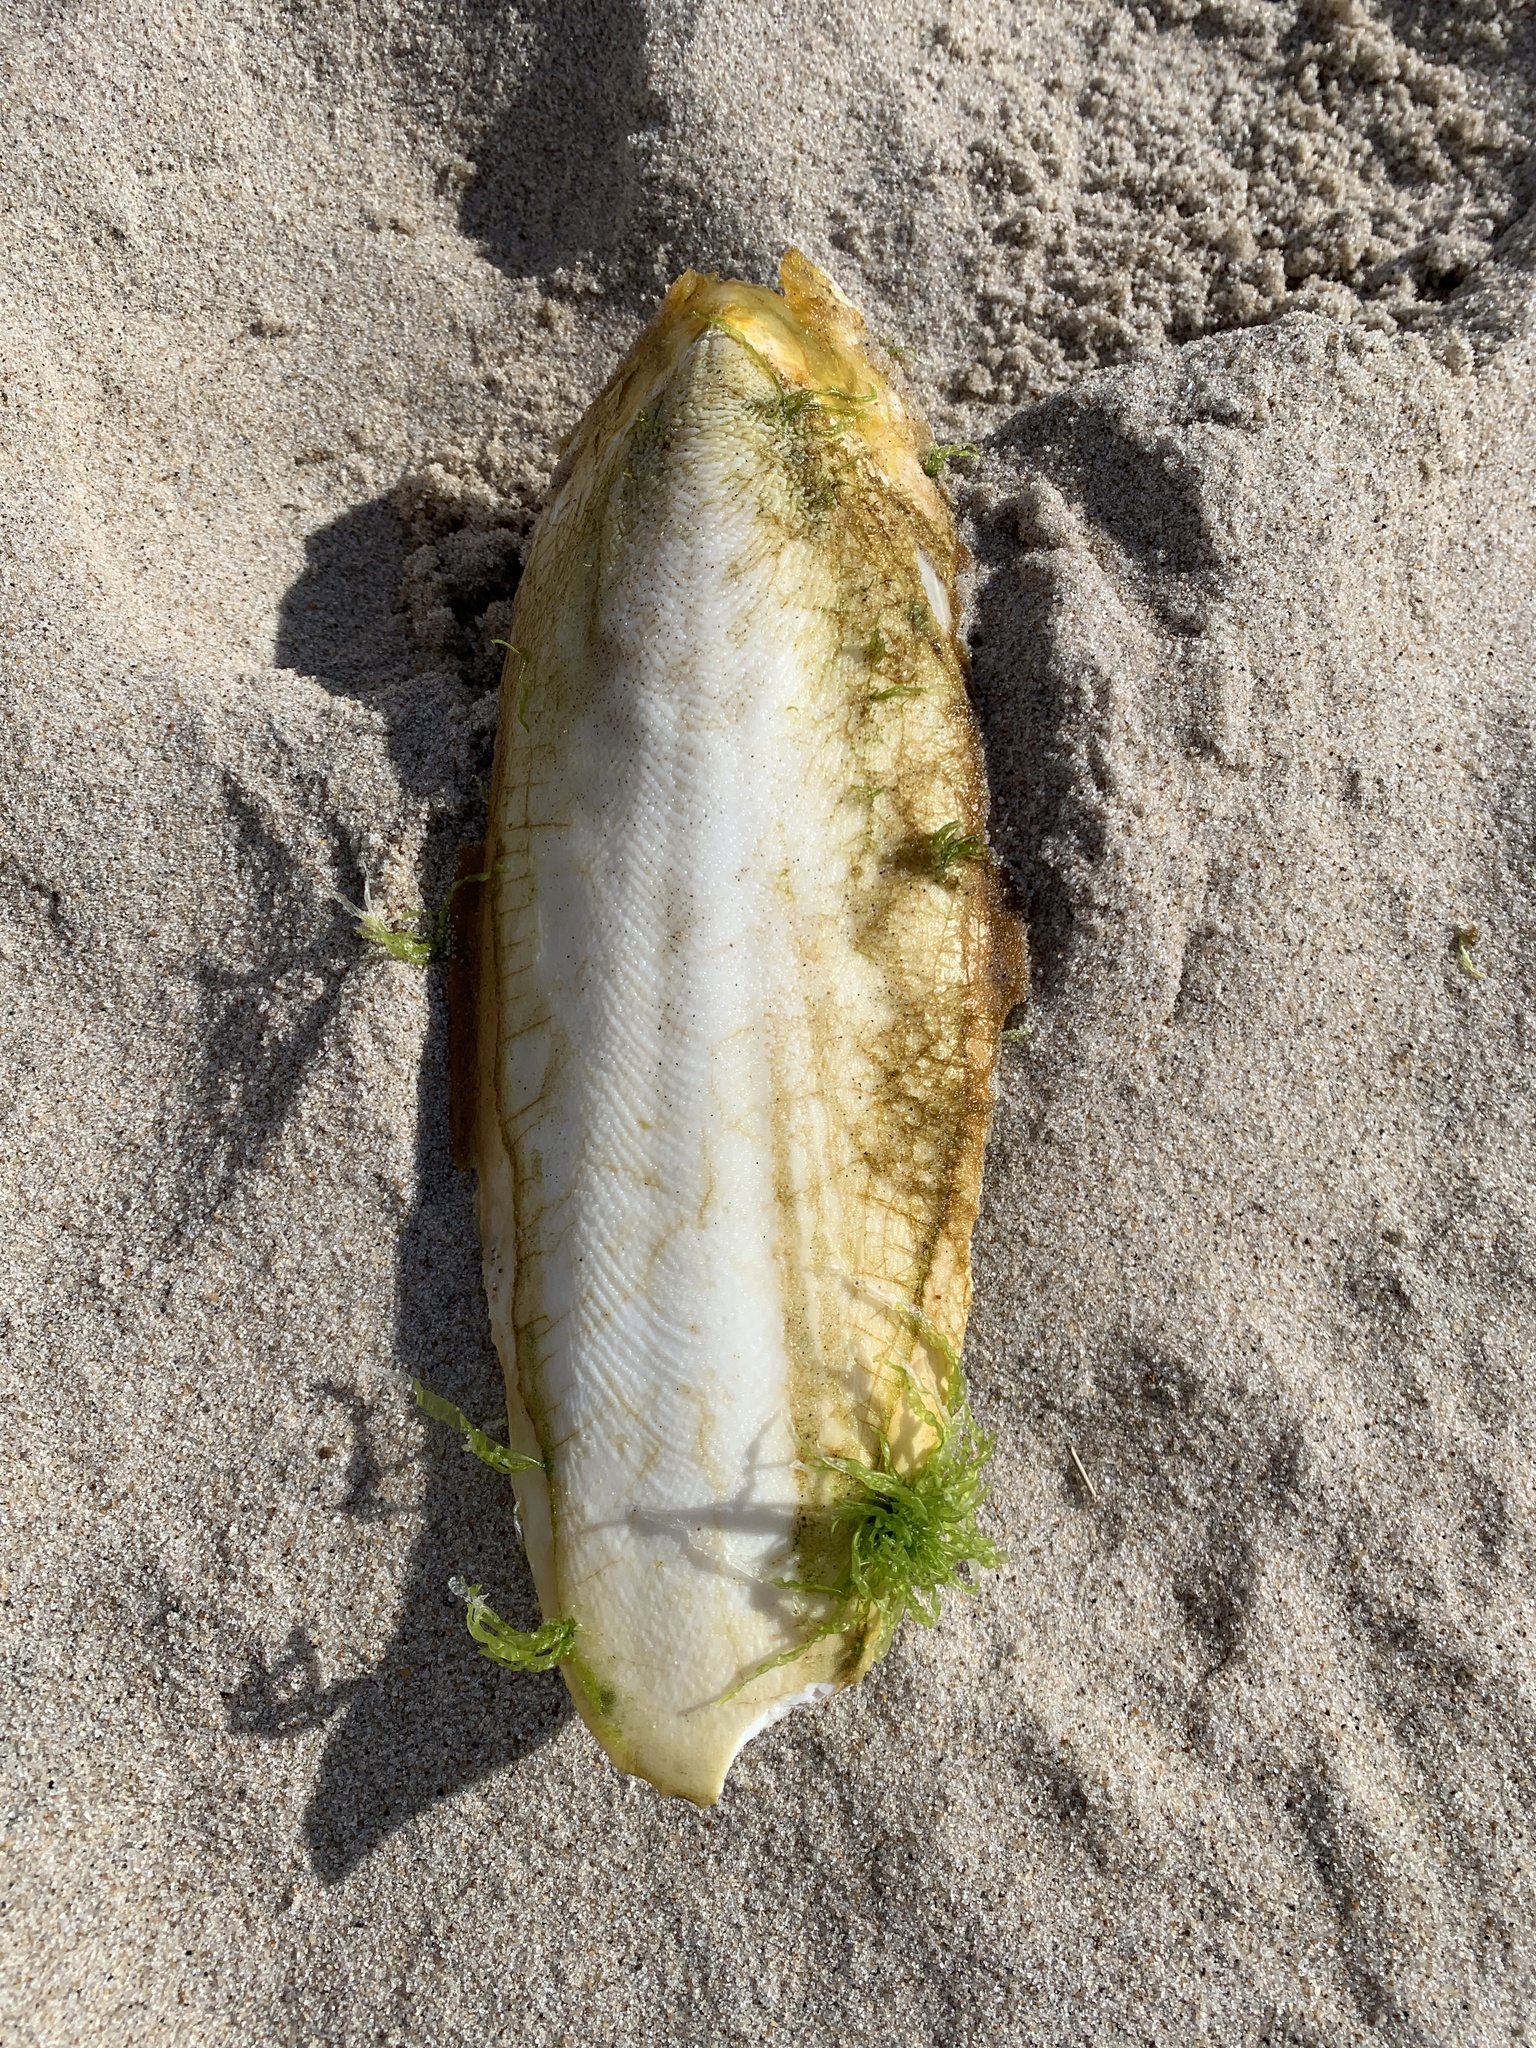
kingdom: Animalia
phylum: Mollusca
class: Cephalopoda
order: Sepiida
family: Sepiidae
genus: Sepia
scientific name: Sepia officinalis
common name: Common cuttlefish
